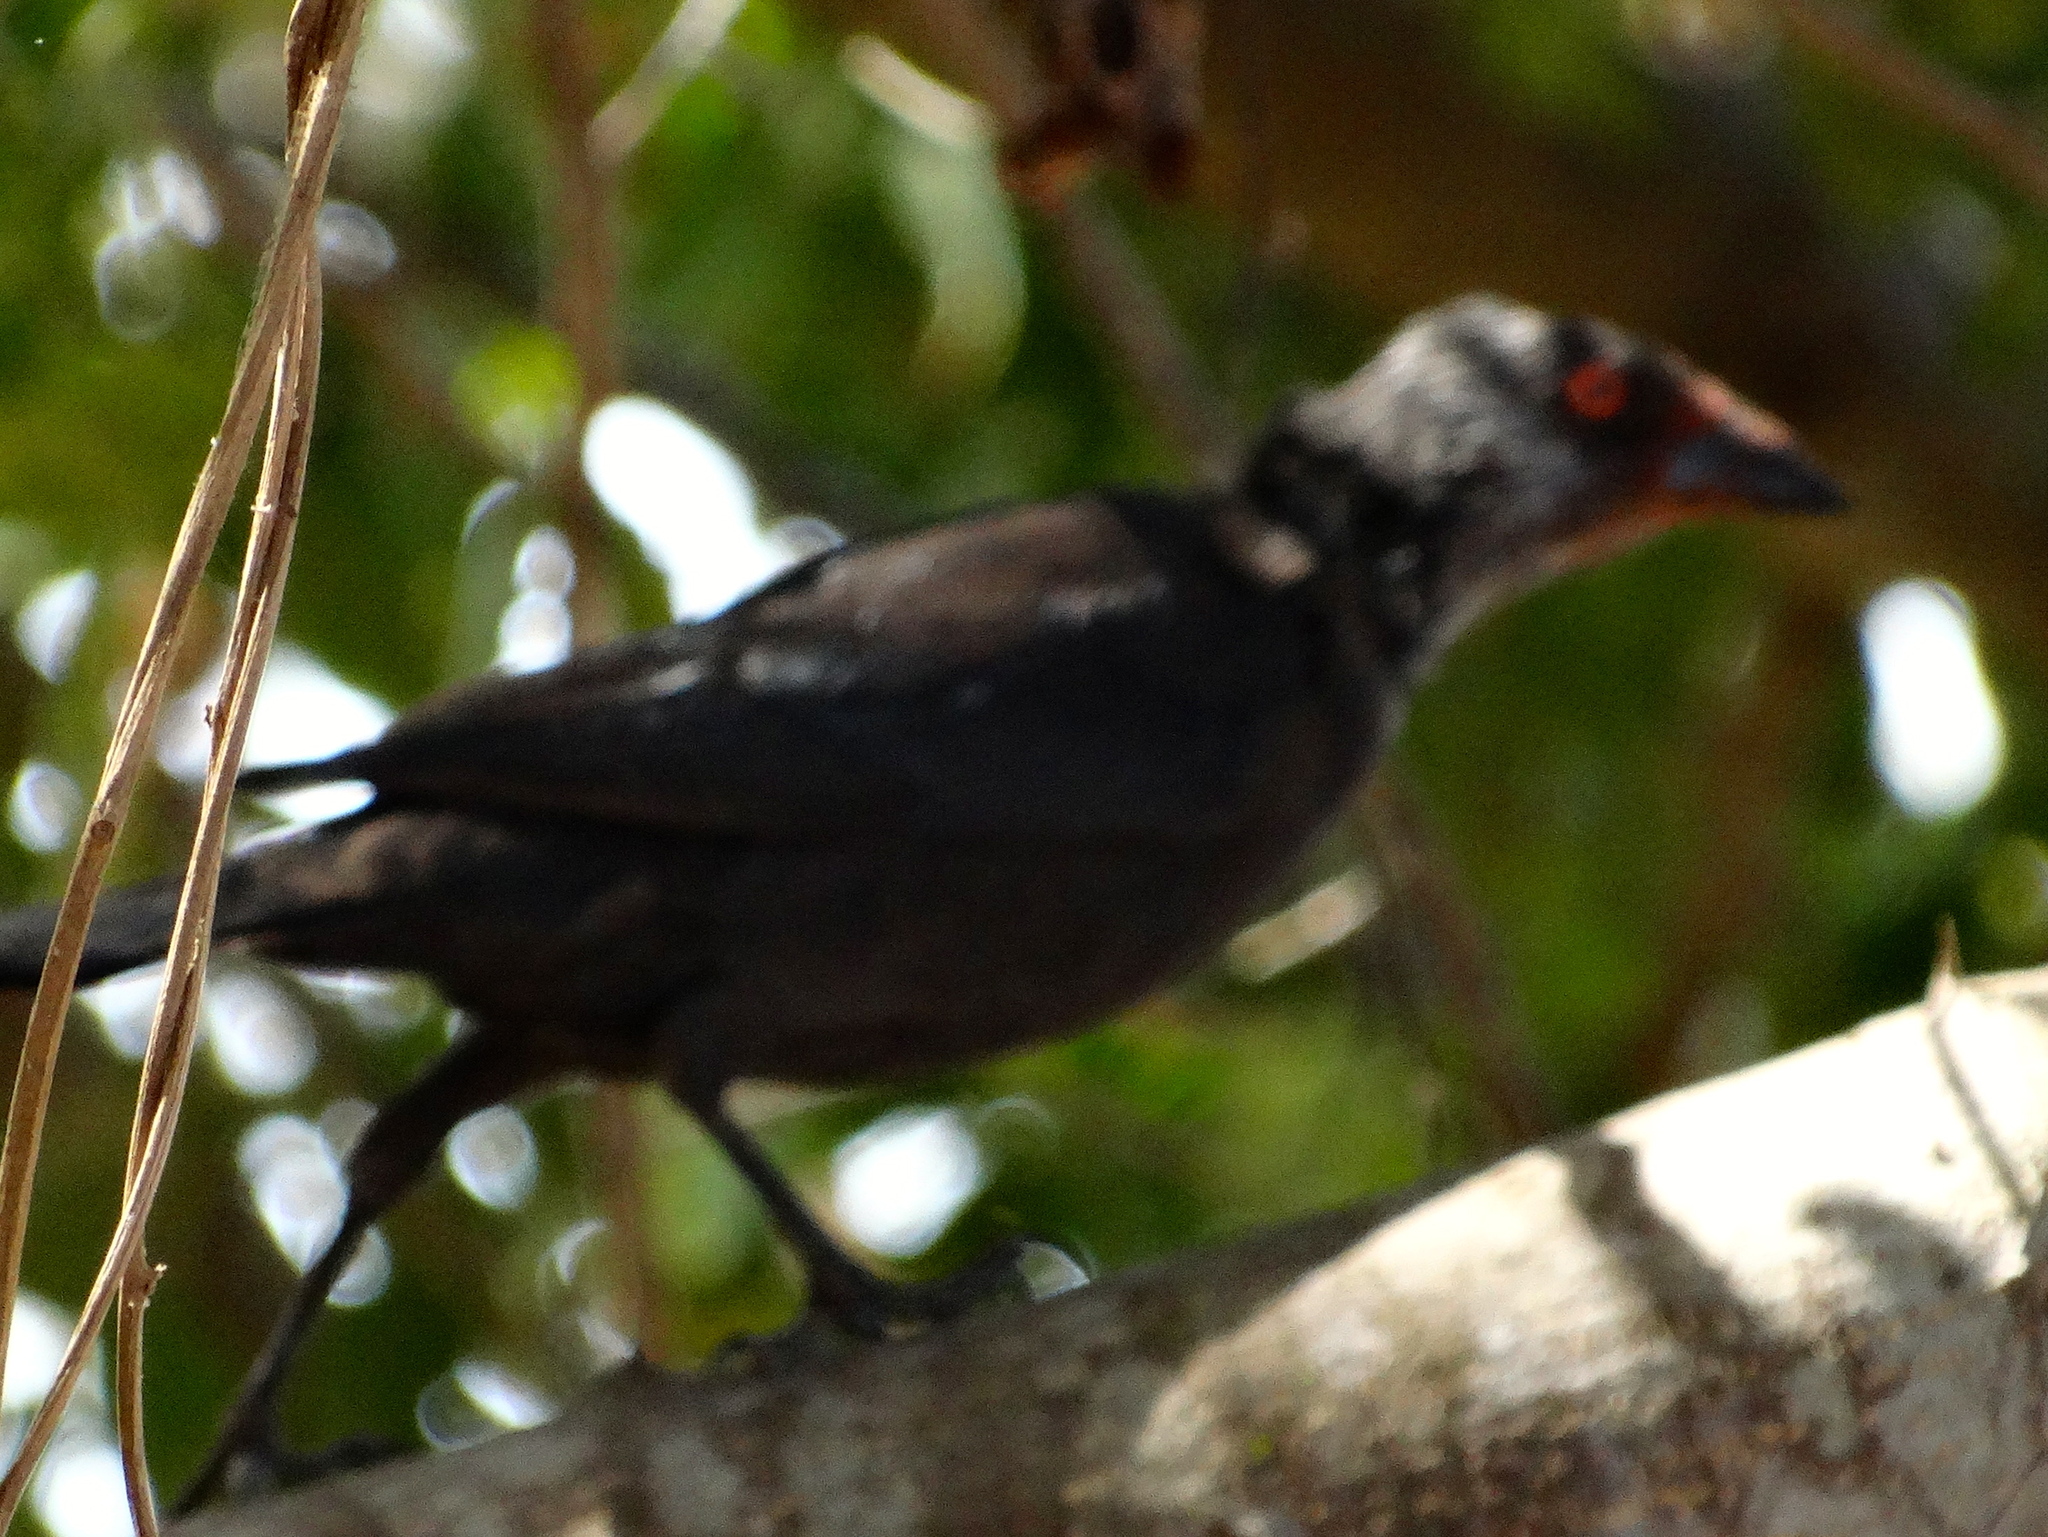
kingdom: Animalia
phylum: Chordata
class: Aves
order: Passeriformes
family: Icteridae
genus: Molothrus
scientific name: Molothrus aeneus
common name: Bronzed cowbird
